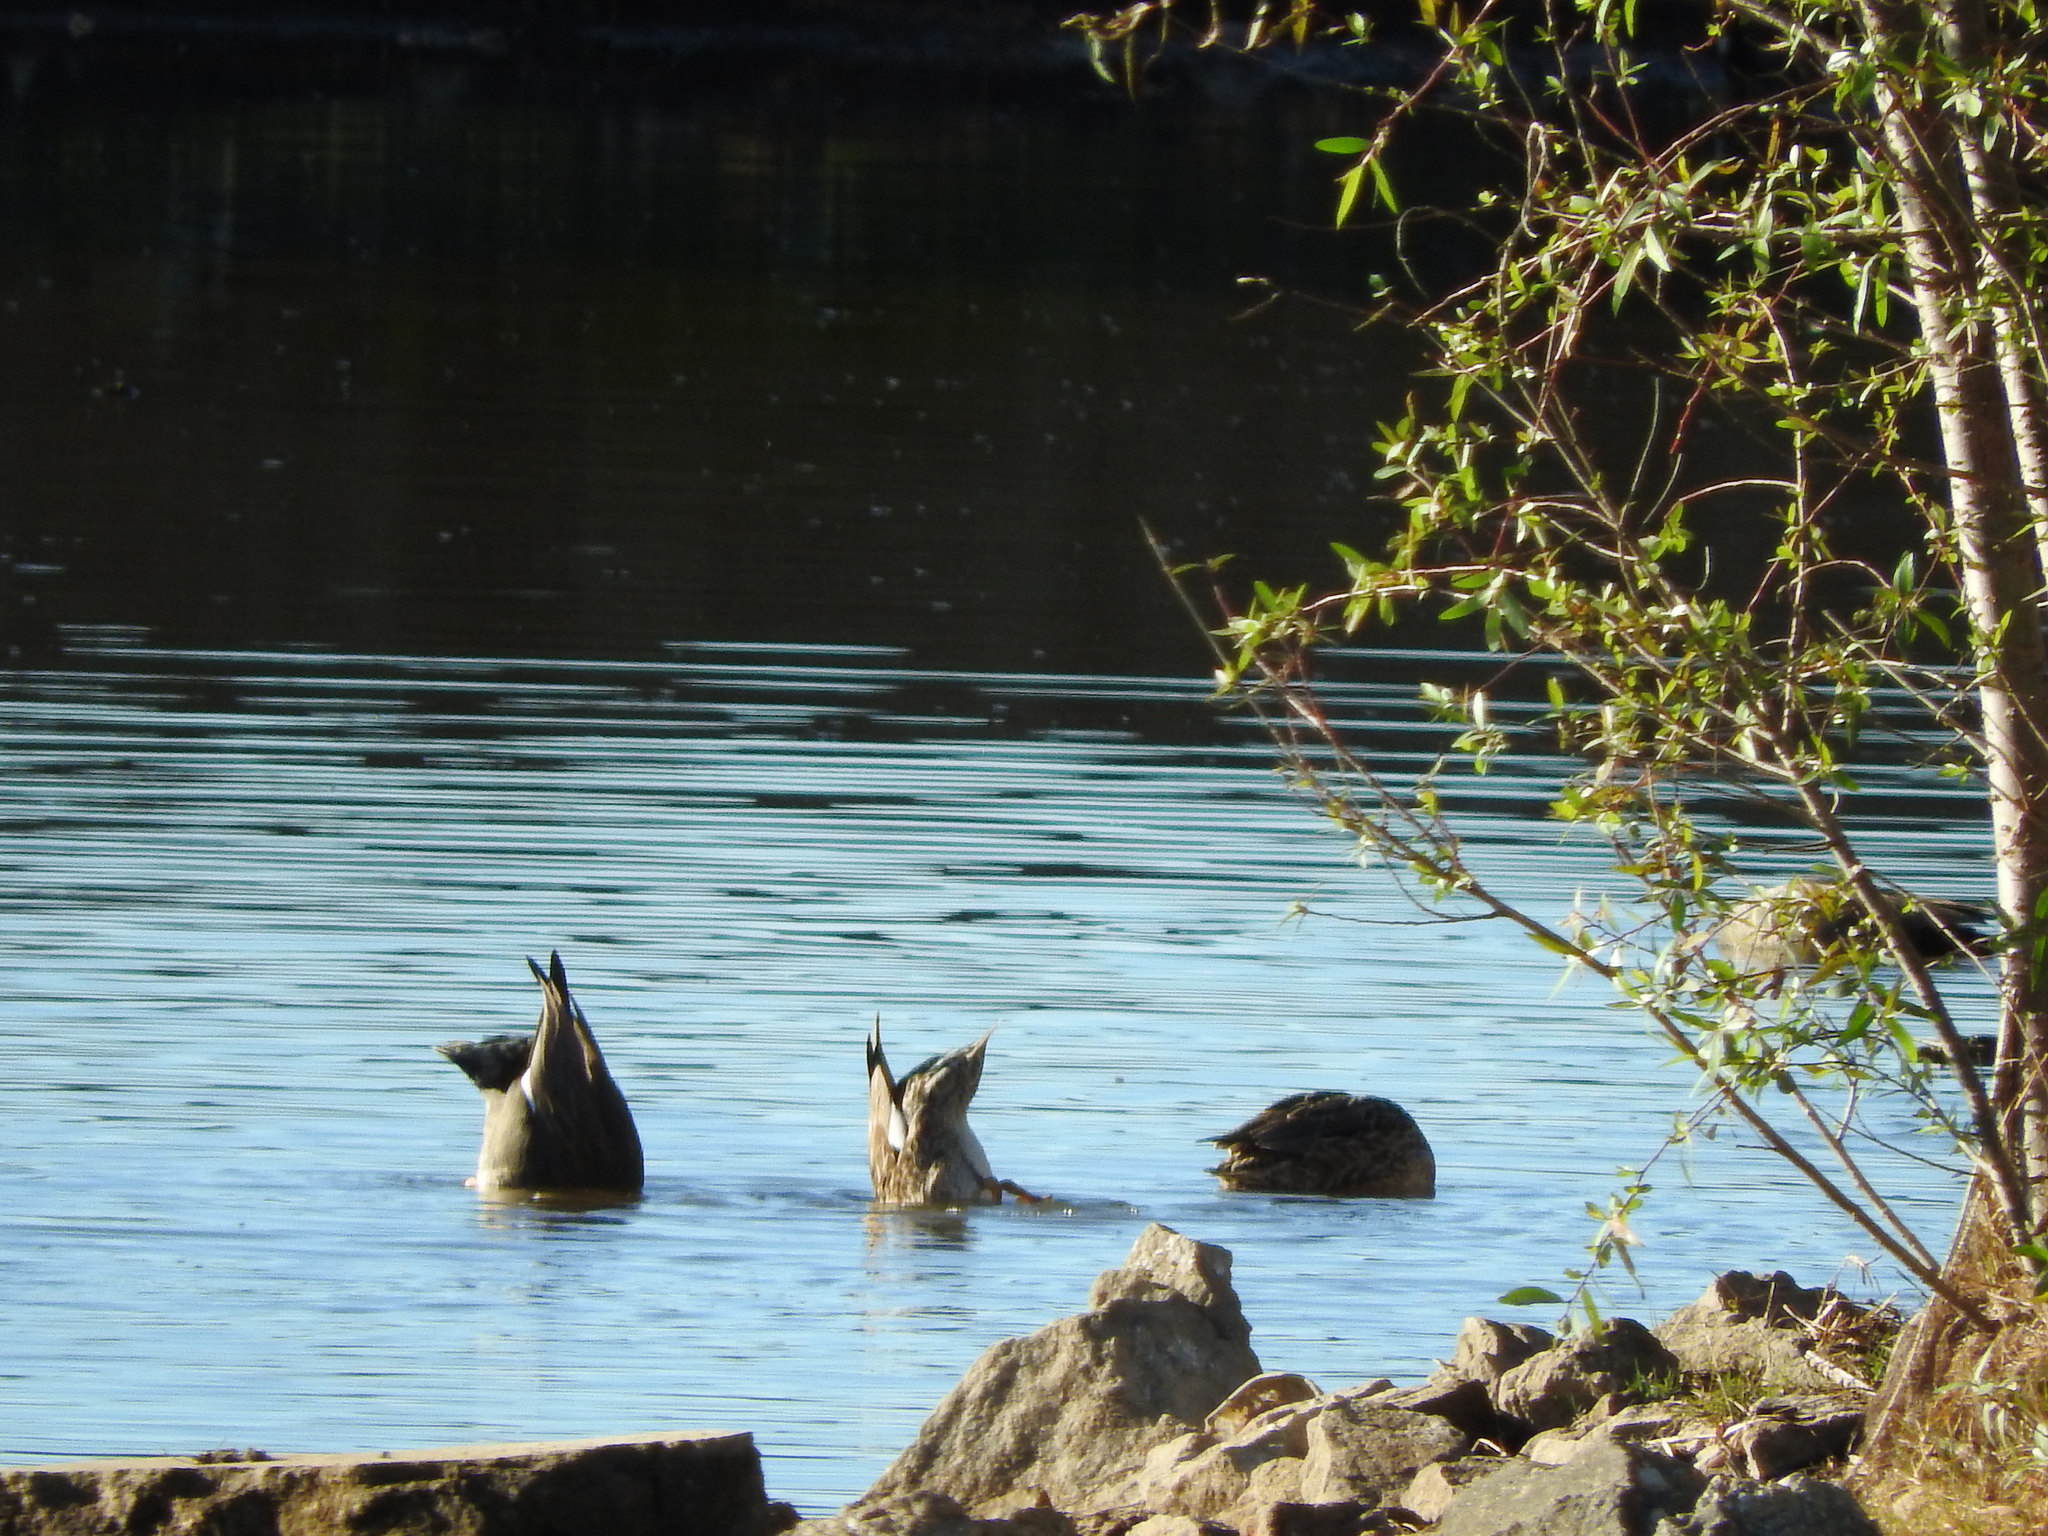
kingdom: Animalia
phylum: Chordata
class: Aves
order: Anseriformes
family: Anatidae
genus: Mareca
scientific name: Mareca strepera
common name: Gadwall
